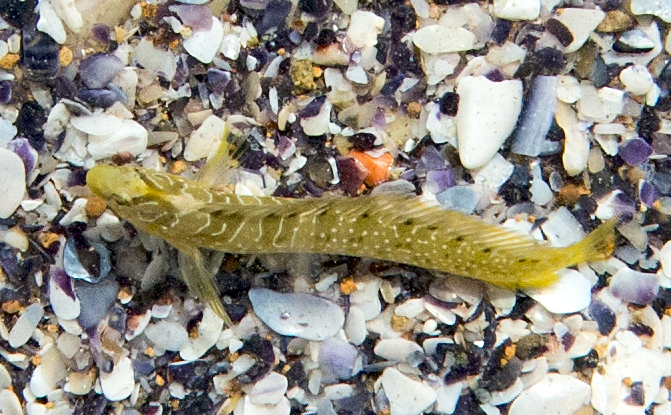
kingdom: Animalia
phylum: Chordata
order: Perciformes
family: Blenniidae
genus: Salaria
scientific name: Salaria pavo
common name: Peacock blenny
